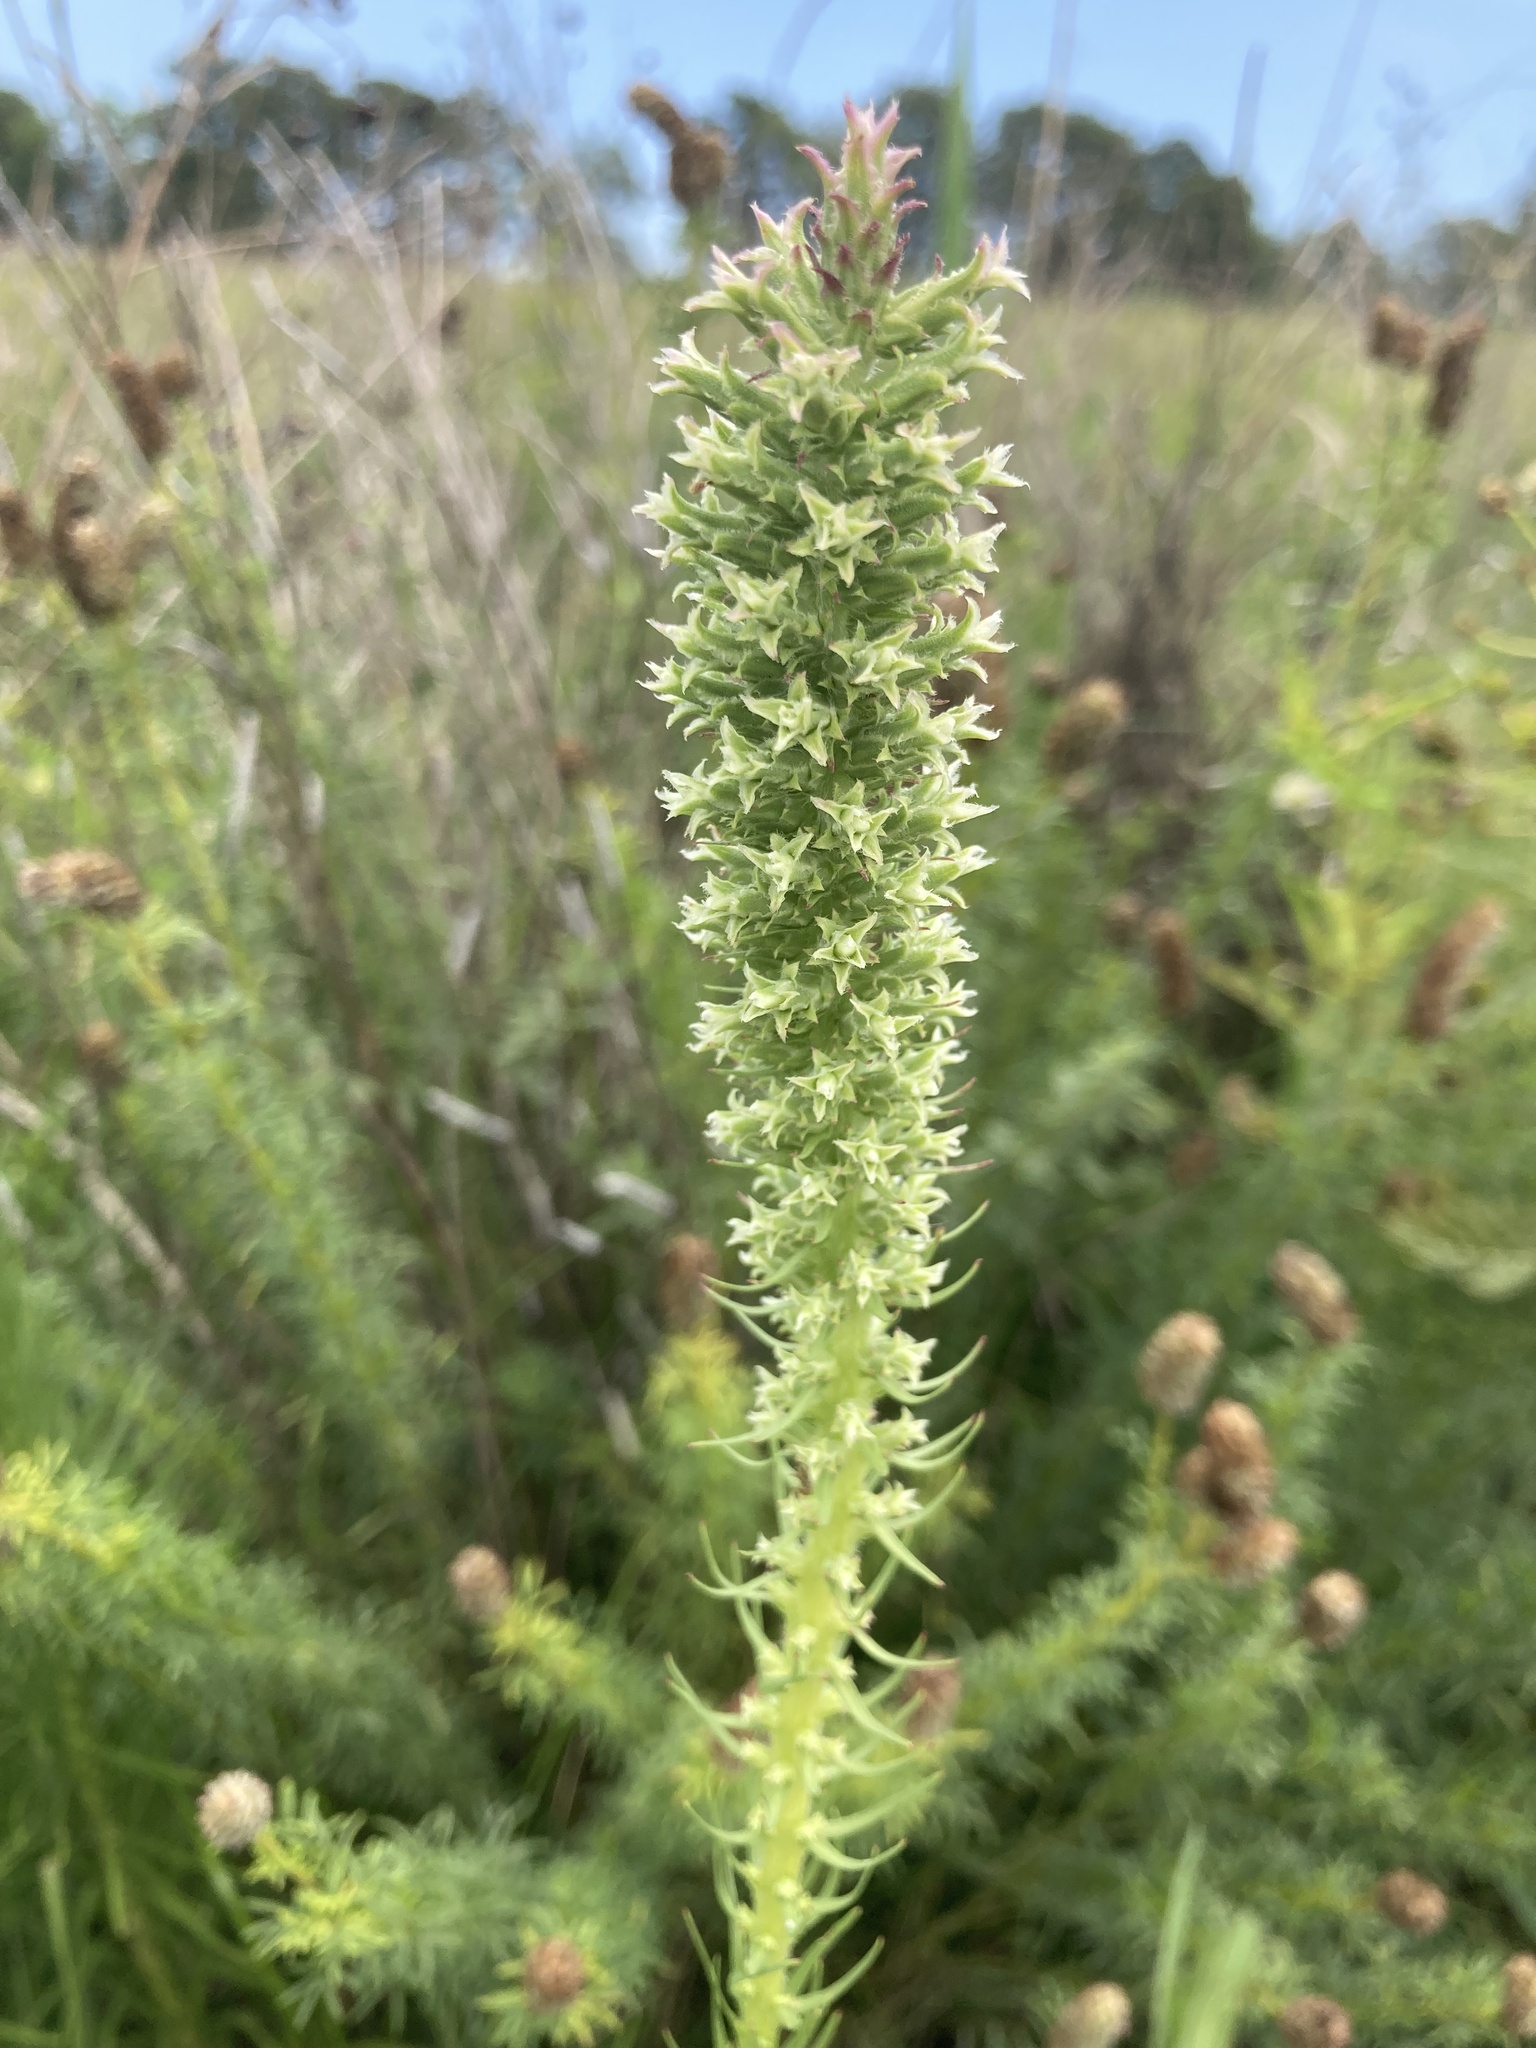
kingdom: Plantae
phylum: Tracheophyta
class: Magnoliopsida
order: Asterales
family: Asteraceae
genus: Liatris
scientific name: Liatris pycnostachya
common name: Cattail gayfeather
